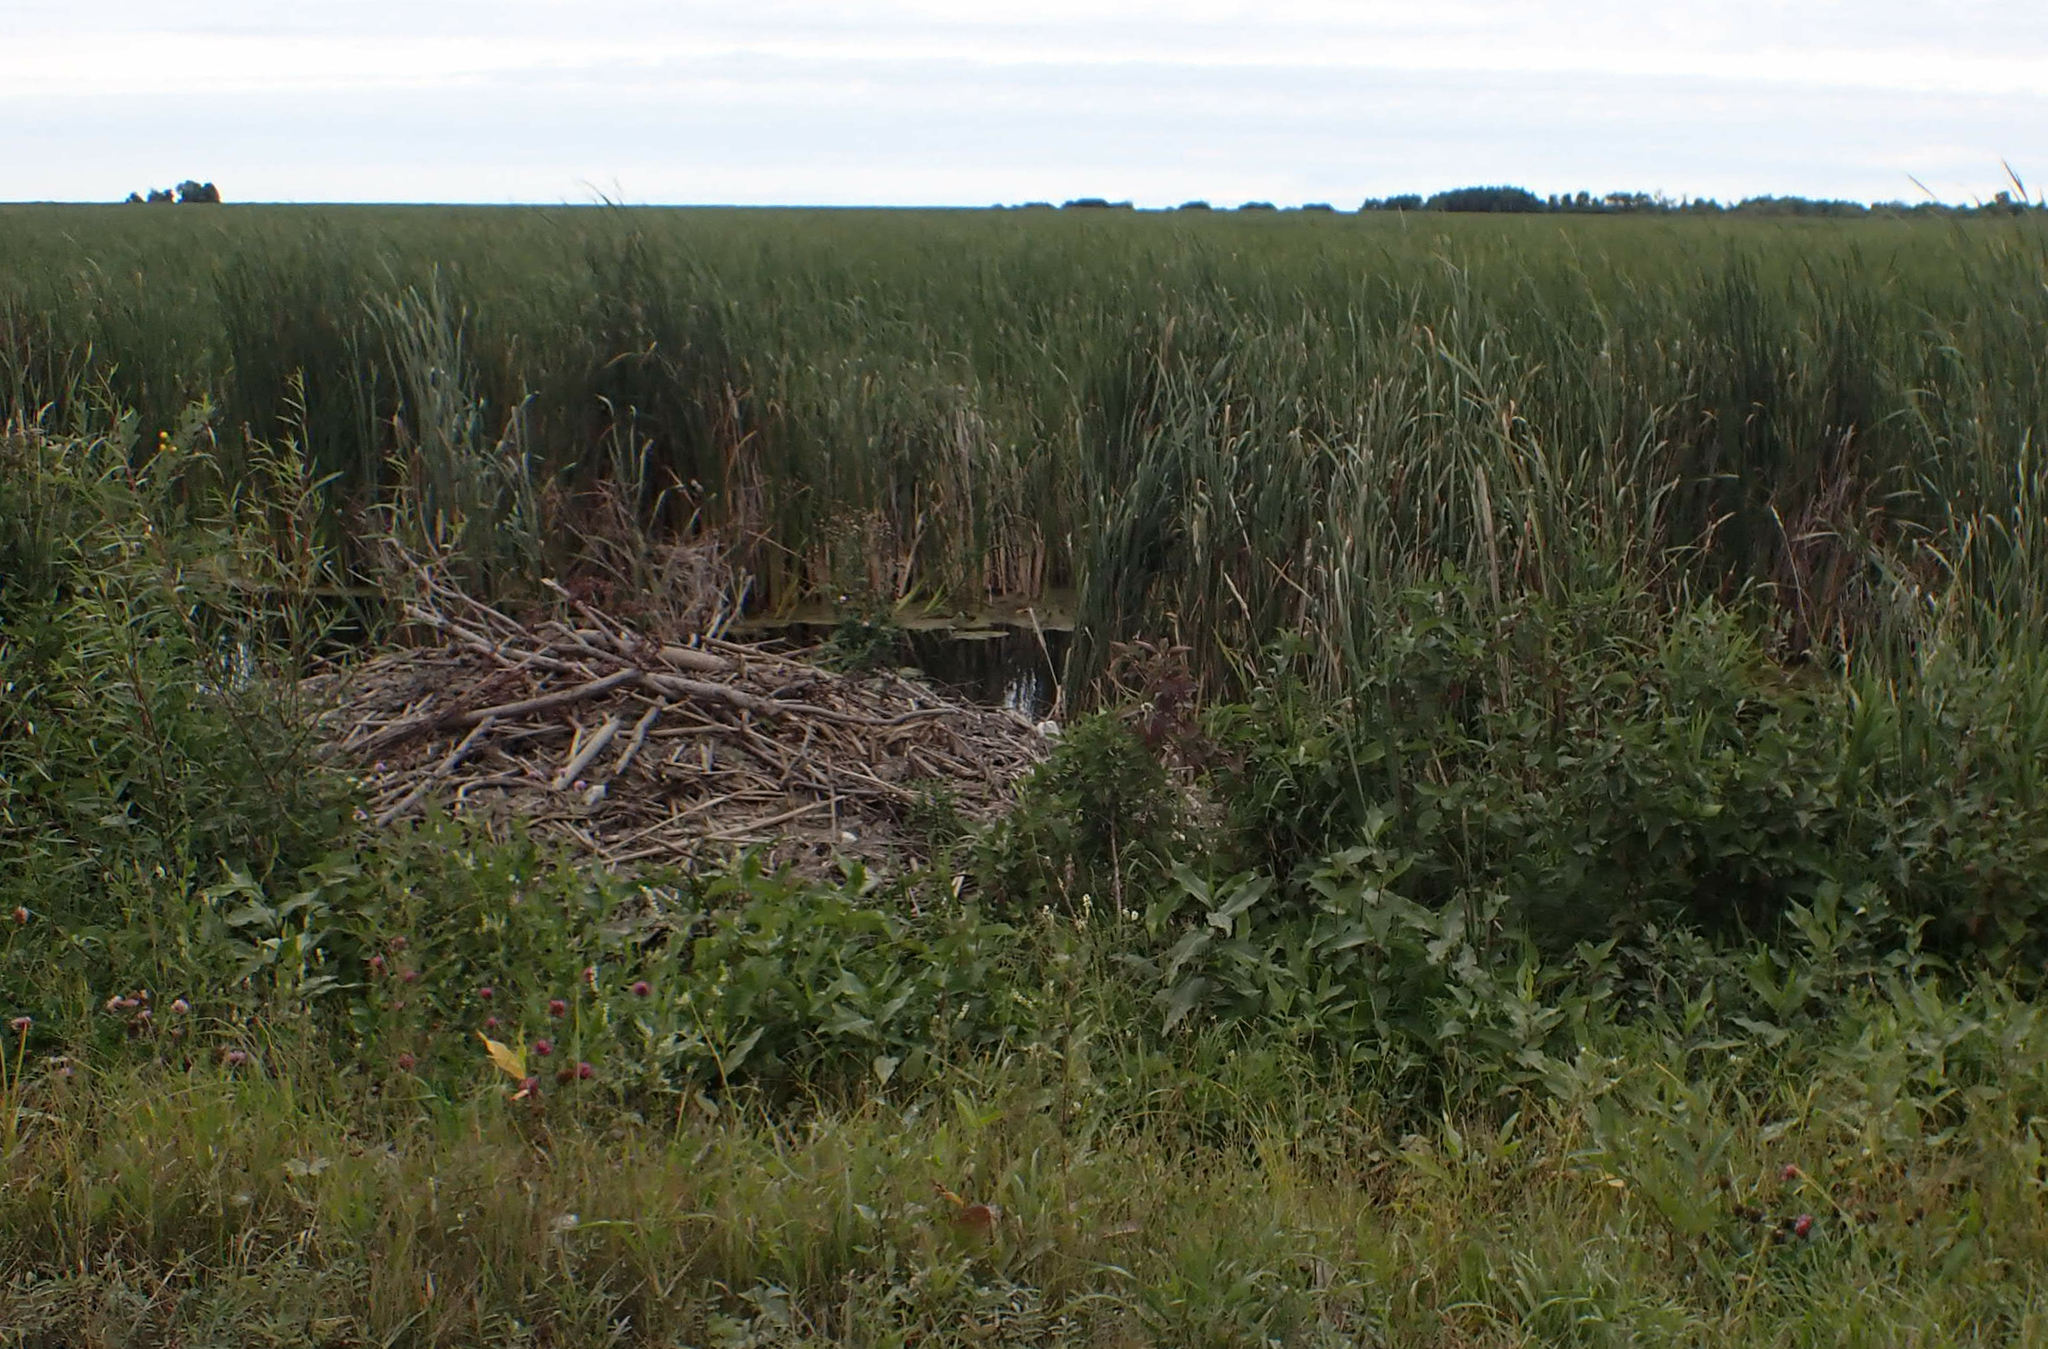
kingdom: Animalia
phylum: Chordata
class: Mammalia
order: Rodentia
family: Castoridae
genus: Castor
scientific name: Castor canadensis
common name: American beaver
